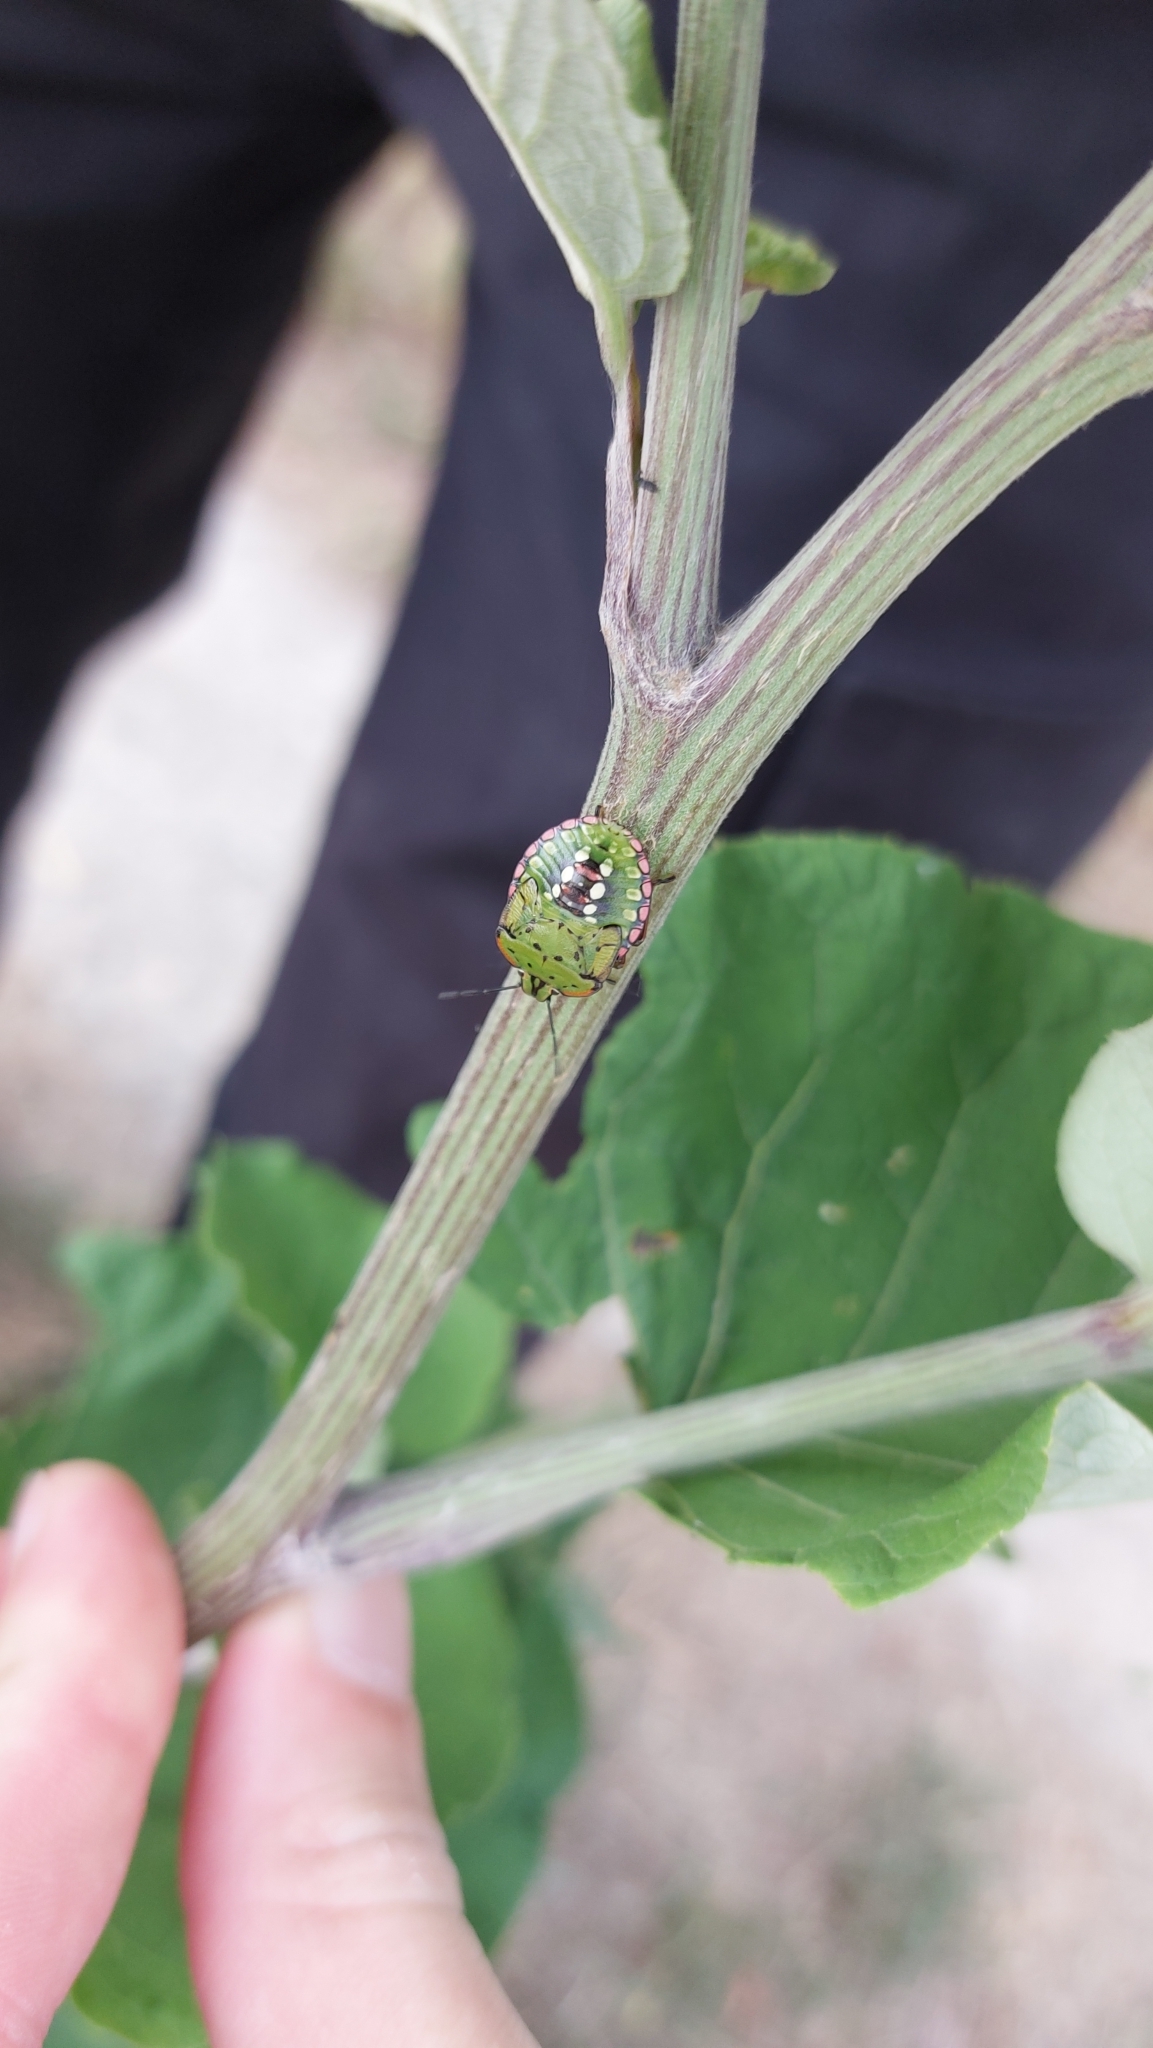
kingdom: Animalia
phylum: Arthropoda
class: Insecta
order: Hemiptera
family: Pentatomidae
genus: Nezara
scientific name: Nezara viridula
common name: Southern green stink bug
